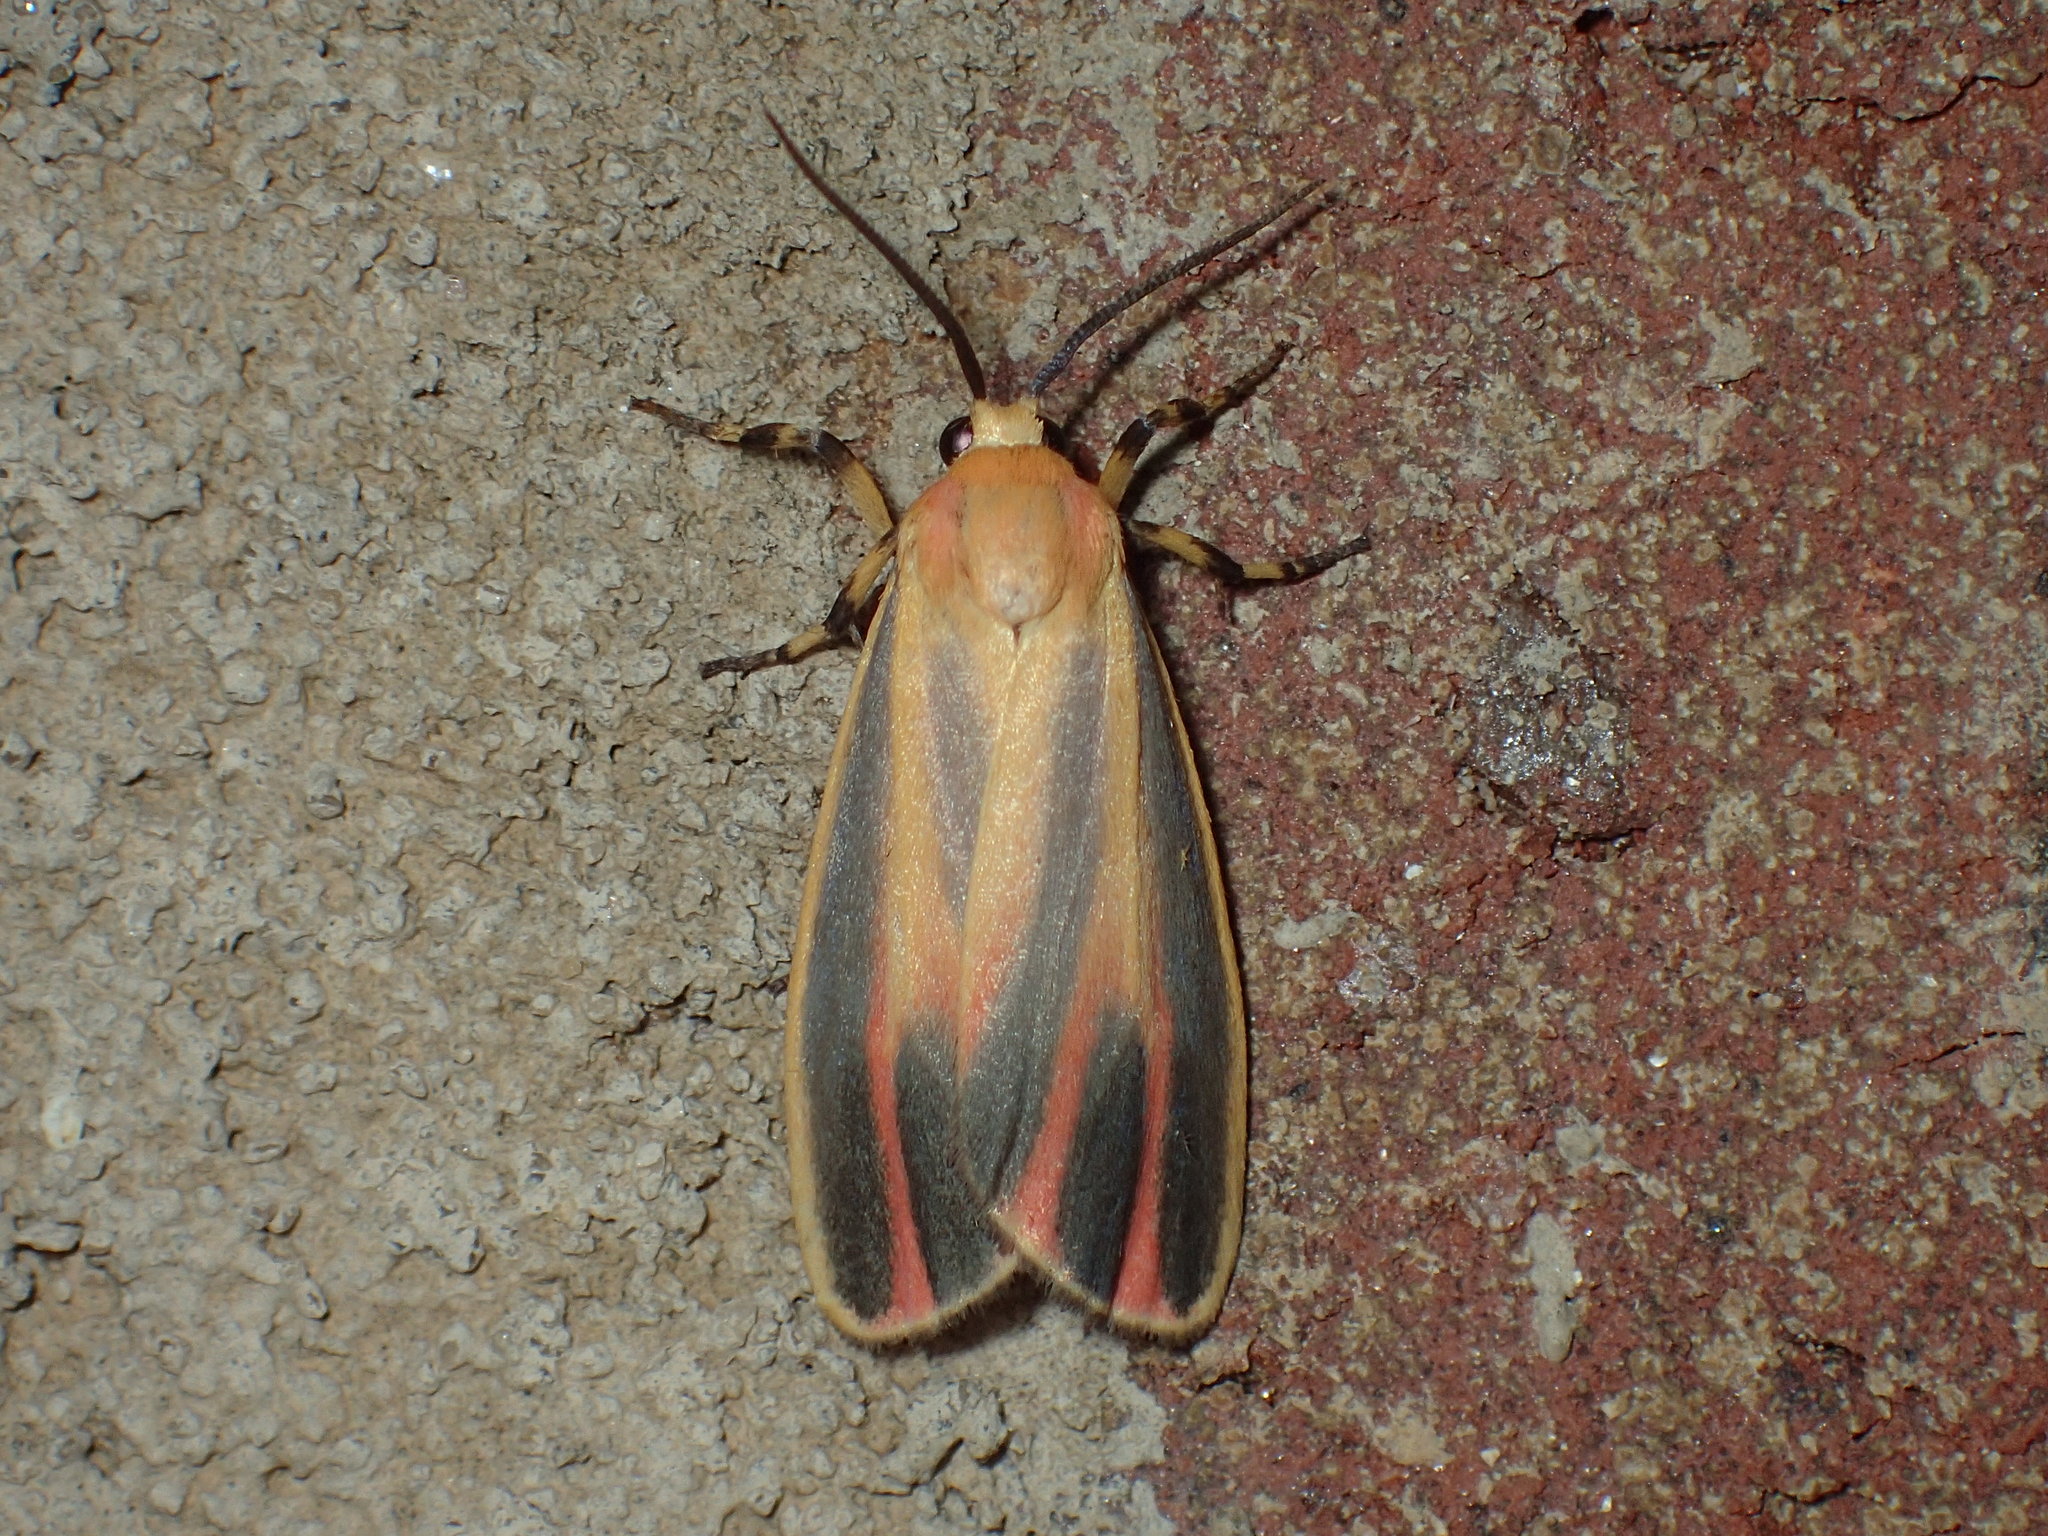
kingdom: Animalia
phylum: Arthropoda
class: Insecta
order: Lepidoptera
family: Erebidae
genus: Hypoprepia
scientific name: Hypoprepia fucosa
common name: Painted lichen moth
